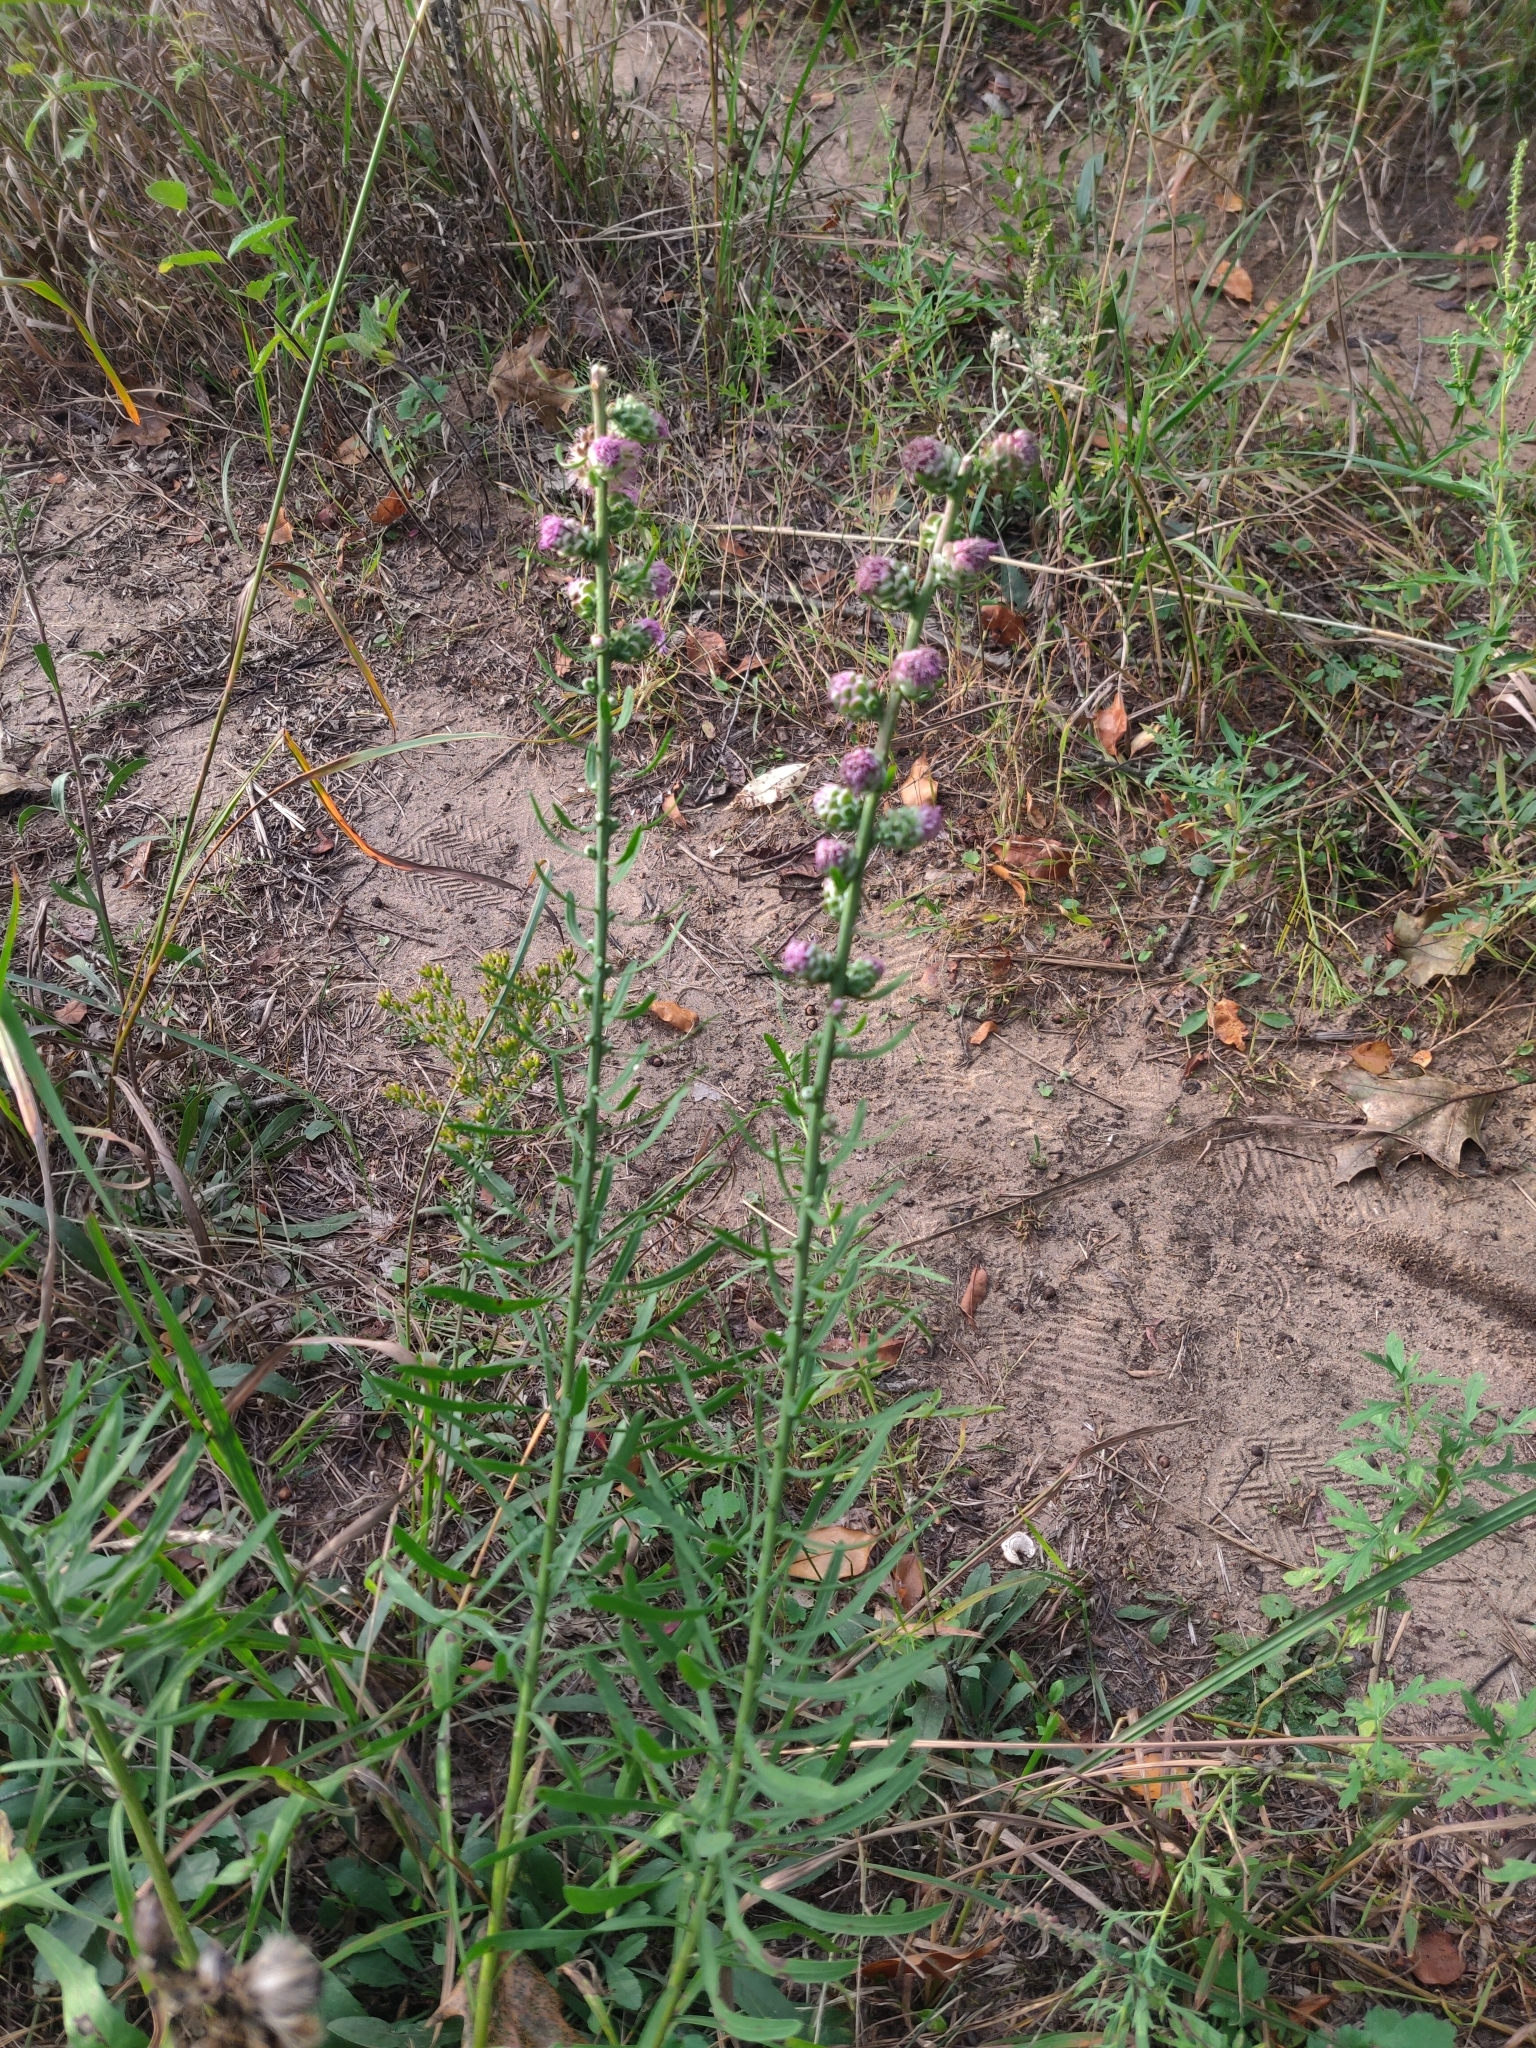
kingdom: Plantae
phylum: Tracheophyta
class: Magnoliopsida
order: Asterales
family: Asteraceae
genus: Liatris
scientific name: Liatris aspera
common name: Lacerate blazing-star
